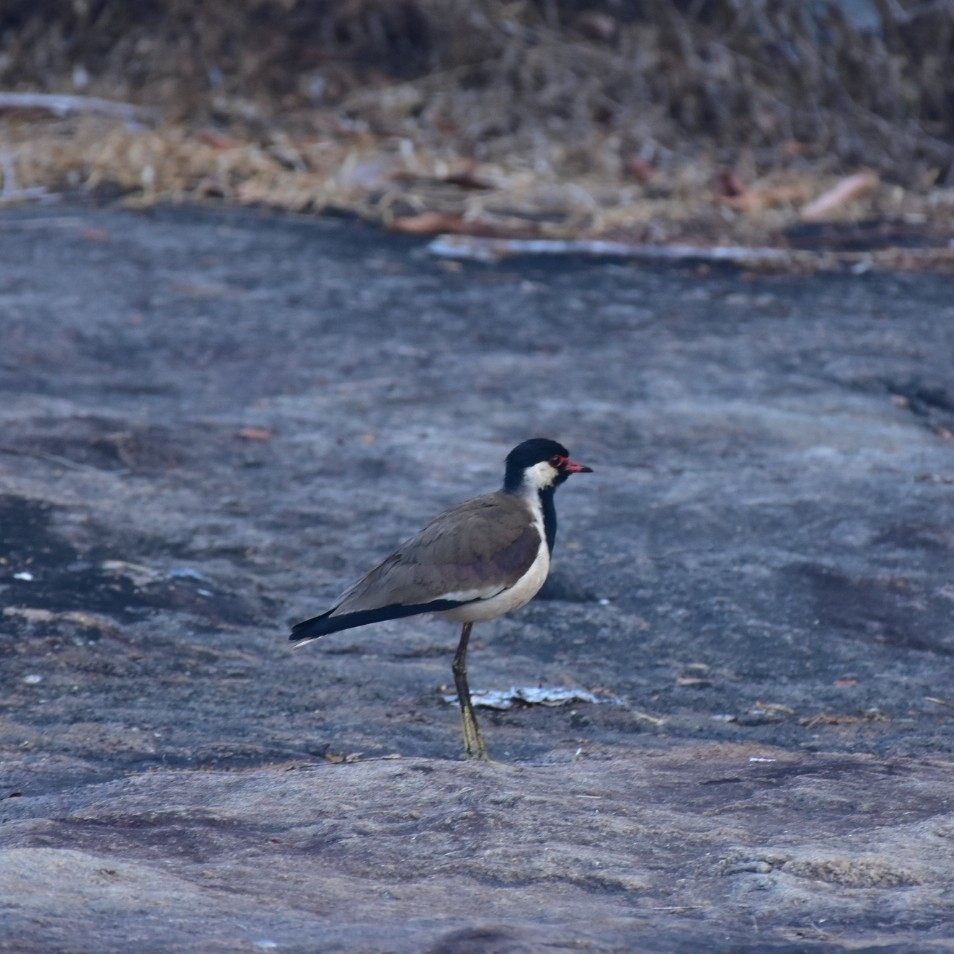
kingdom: Animalia
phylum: Chordata
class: Aves
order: Charadriiformes
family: Charadriidae
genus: Vanellus
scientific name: Vanellus indicus
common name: Red-wattled lapwing
